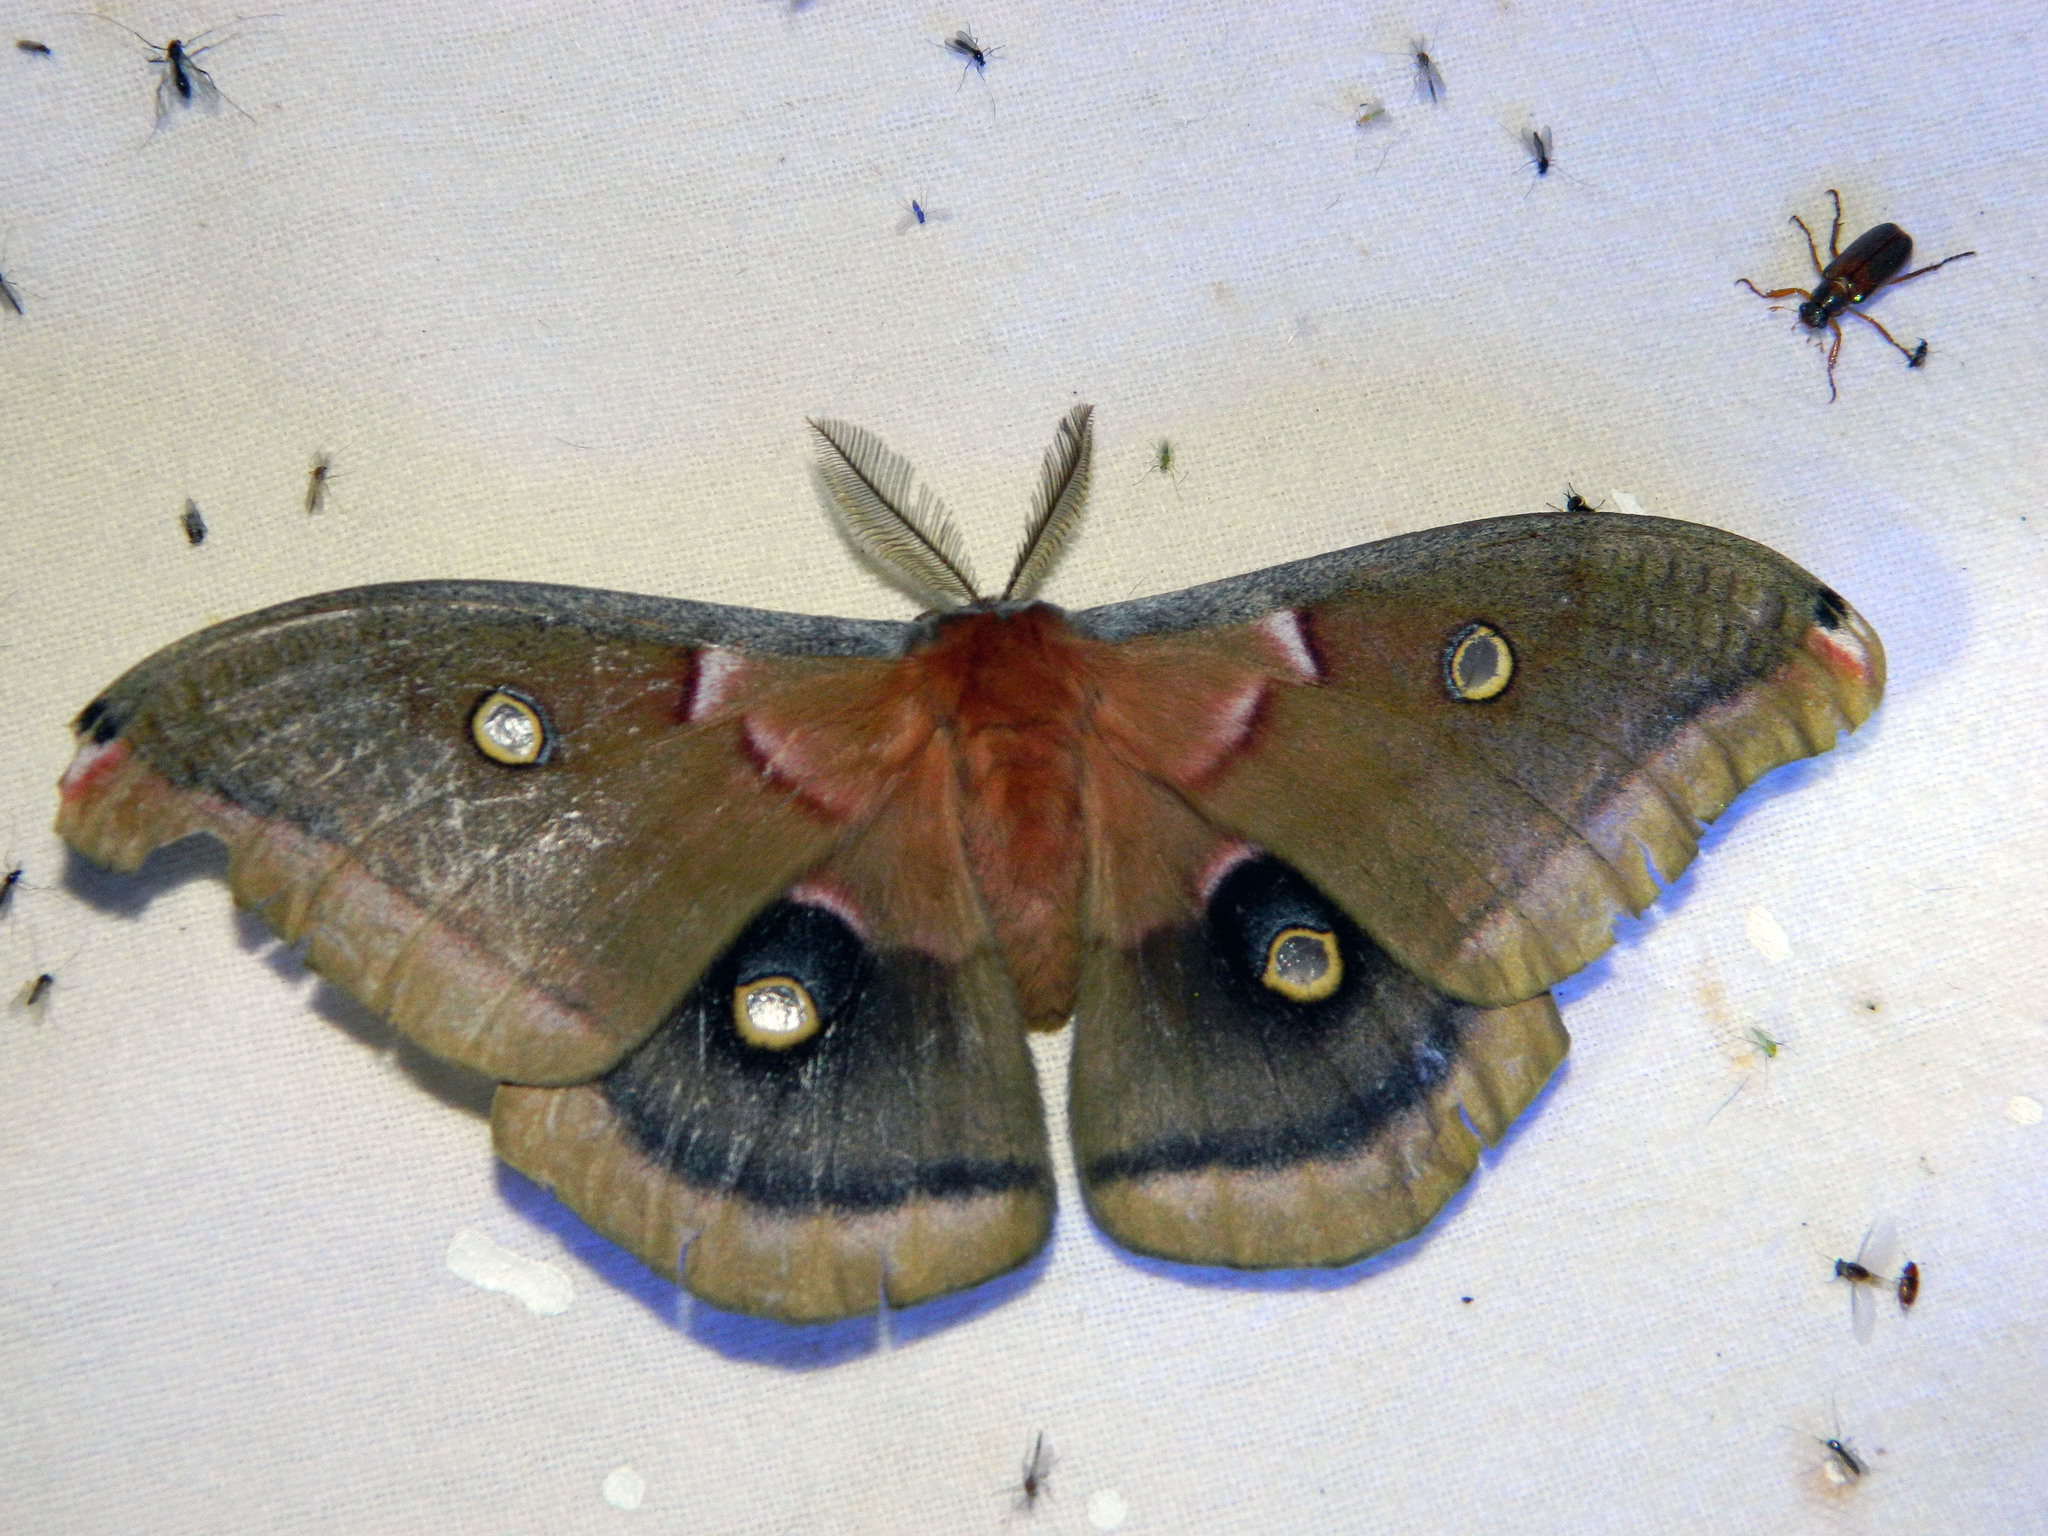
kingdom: Animalia
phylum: Arthropoda
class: Insecta
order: Lepidoptera
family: Saturniidae
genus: Antheraea
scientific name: Antheraea polyphemus
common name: Polyphemus moth
